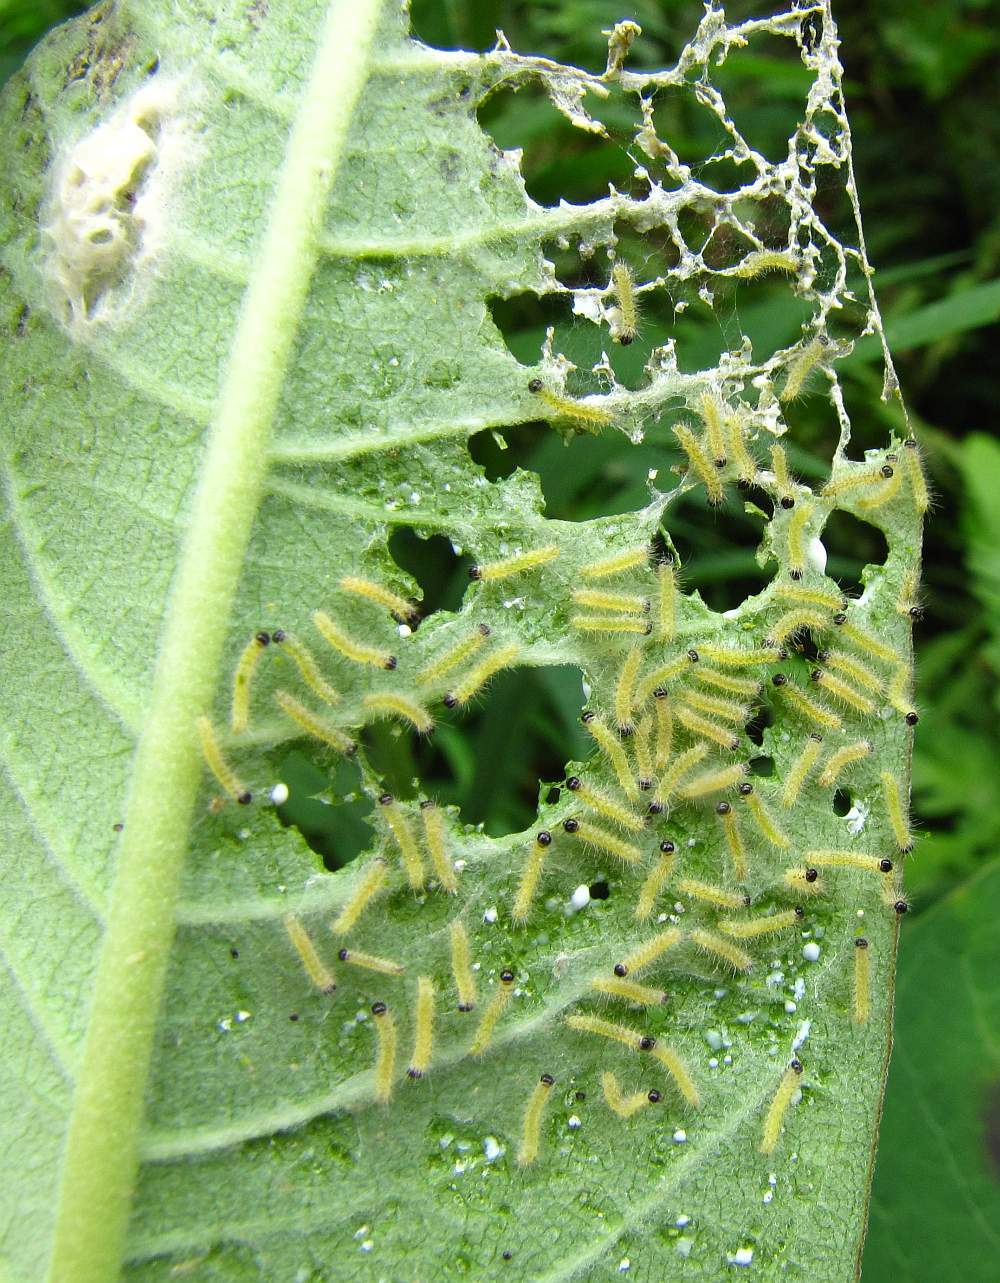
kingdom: Animalia
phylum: Arthropoda
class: Insecta
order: Lepidoptera
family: Erebidae
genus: Euchaetes
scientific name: Euchaetes egle
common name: Milkweed tussock moth
